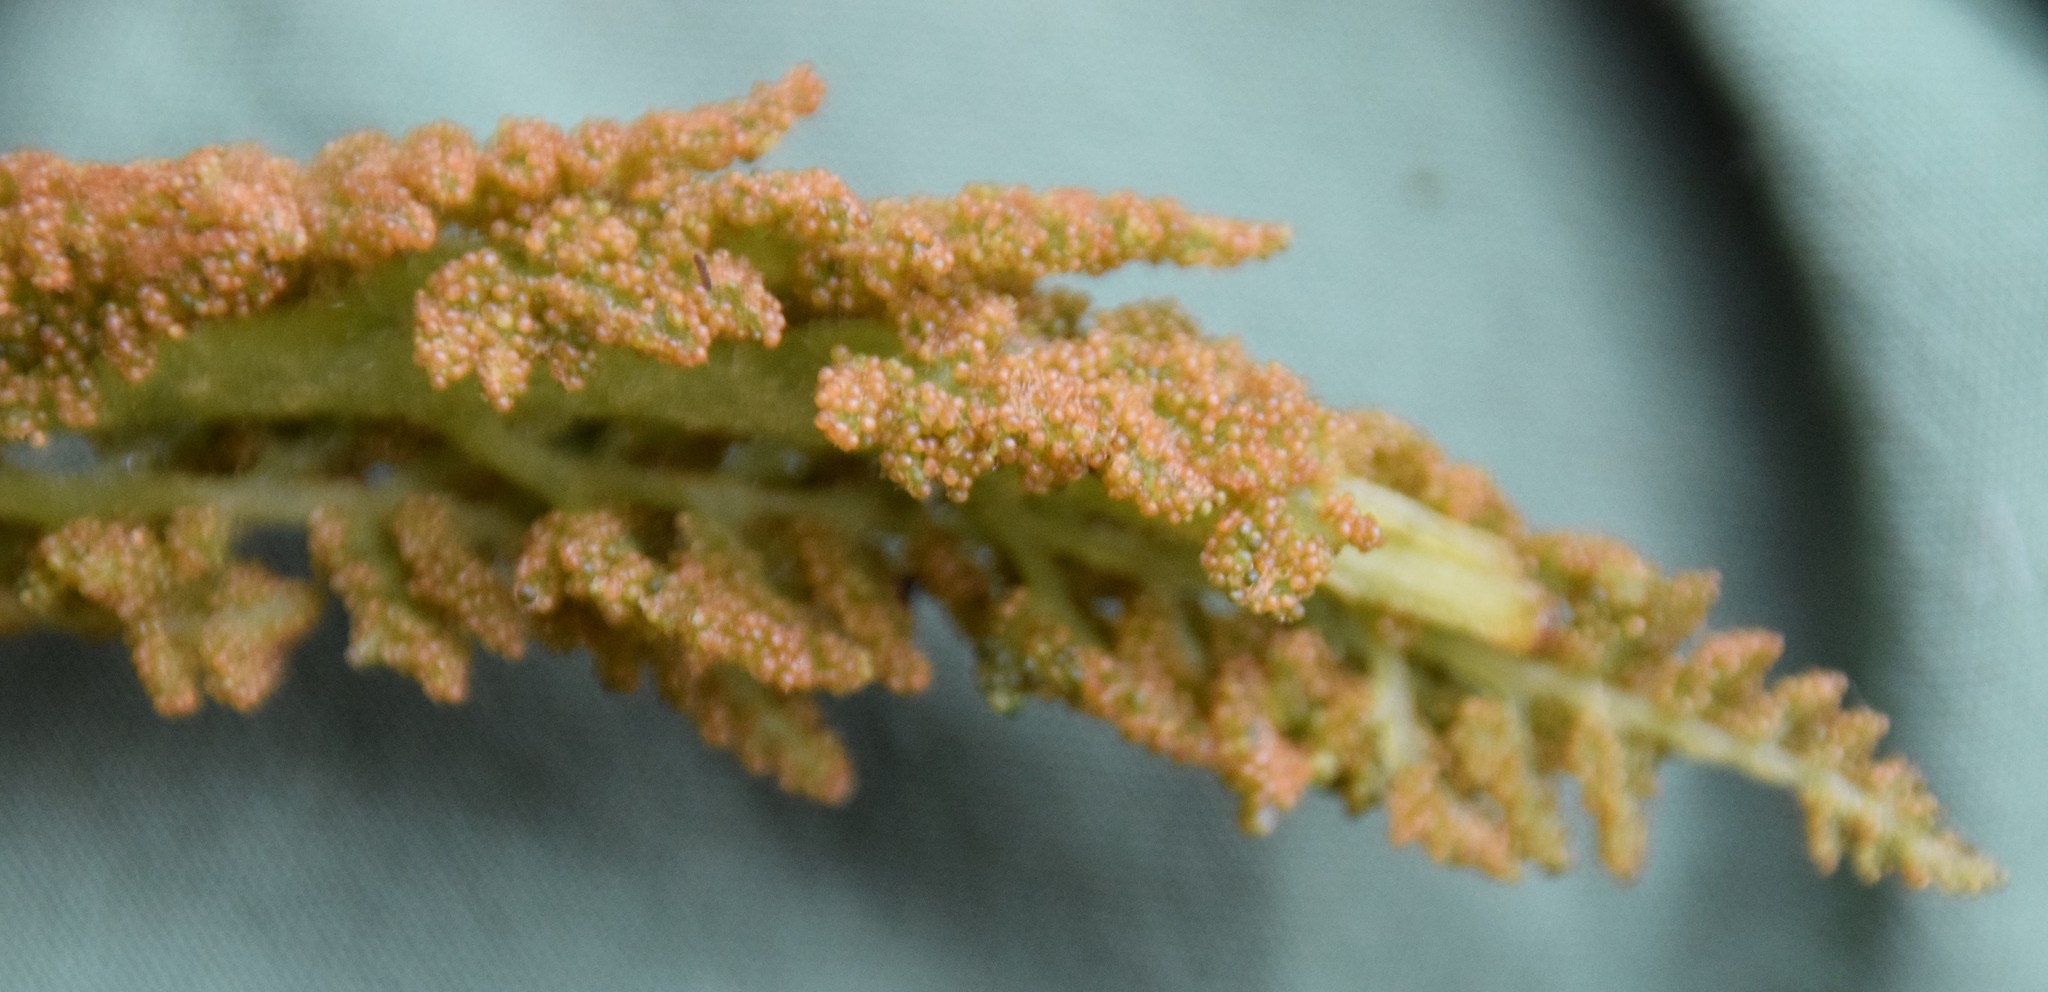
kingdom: Plantae
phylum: Tracheophyta
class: Polypodiopsida
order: Osmundales
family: Osmundaceae
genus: Osmundastrum
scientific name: Osmundastrum cinnamomeum
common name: Cinnamon fern
